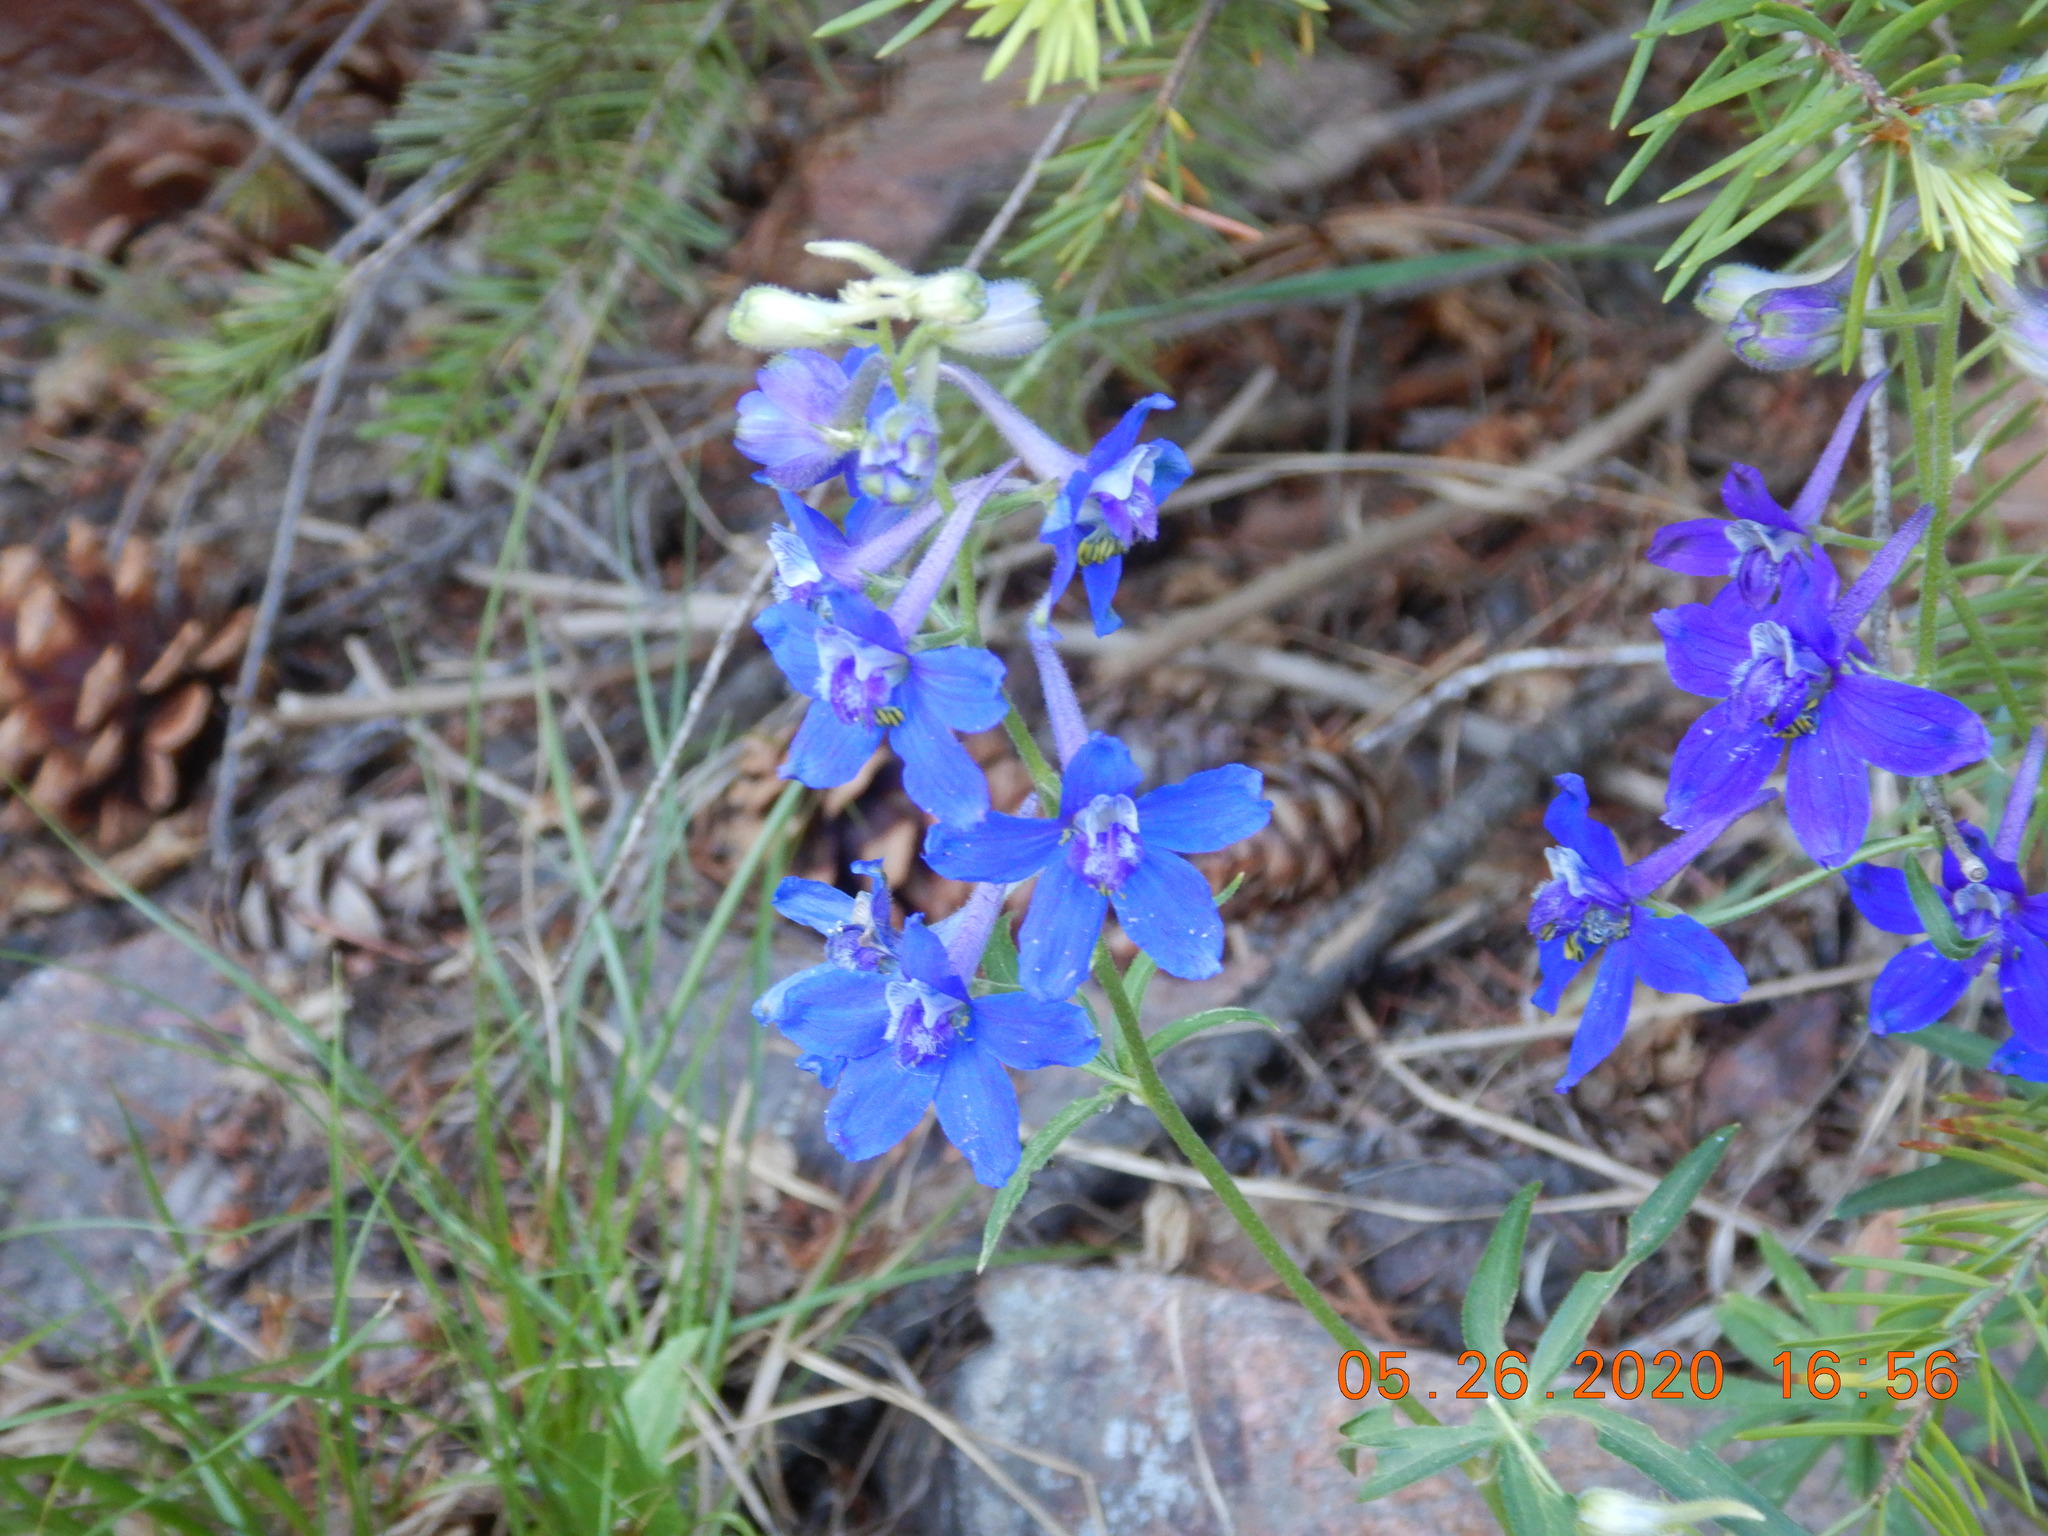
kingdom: Plantae
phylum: Tracheophyta
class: Magnoliopsida
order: Ranunculales
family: Ranunculaceae
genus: Delphinium
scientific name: Delphinium nuttallianum
